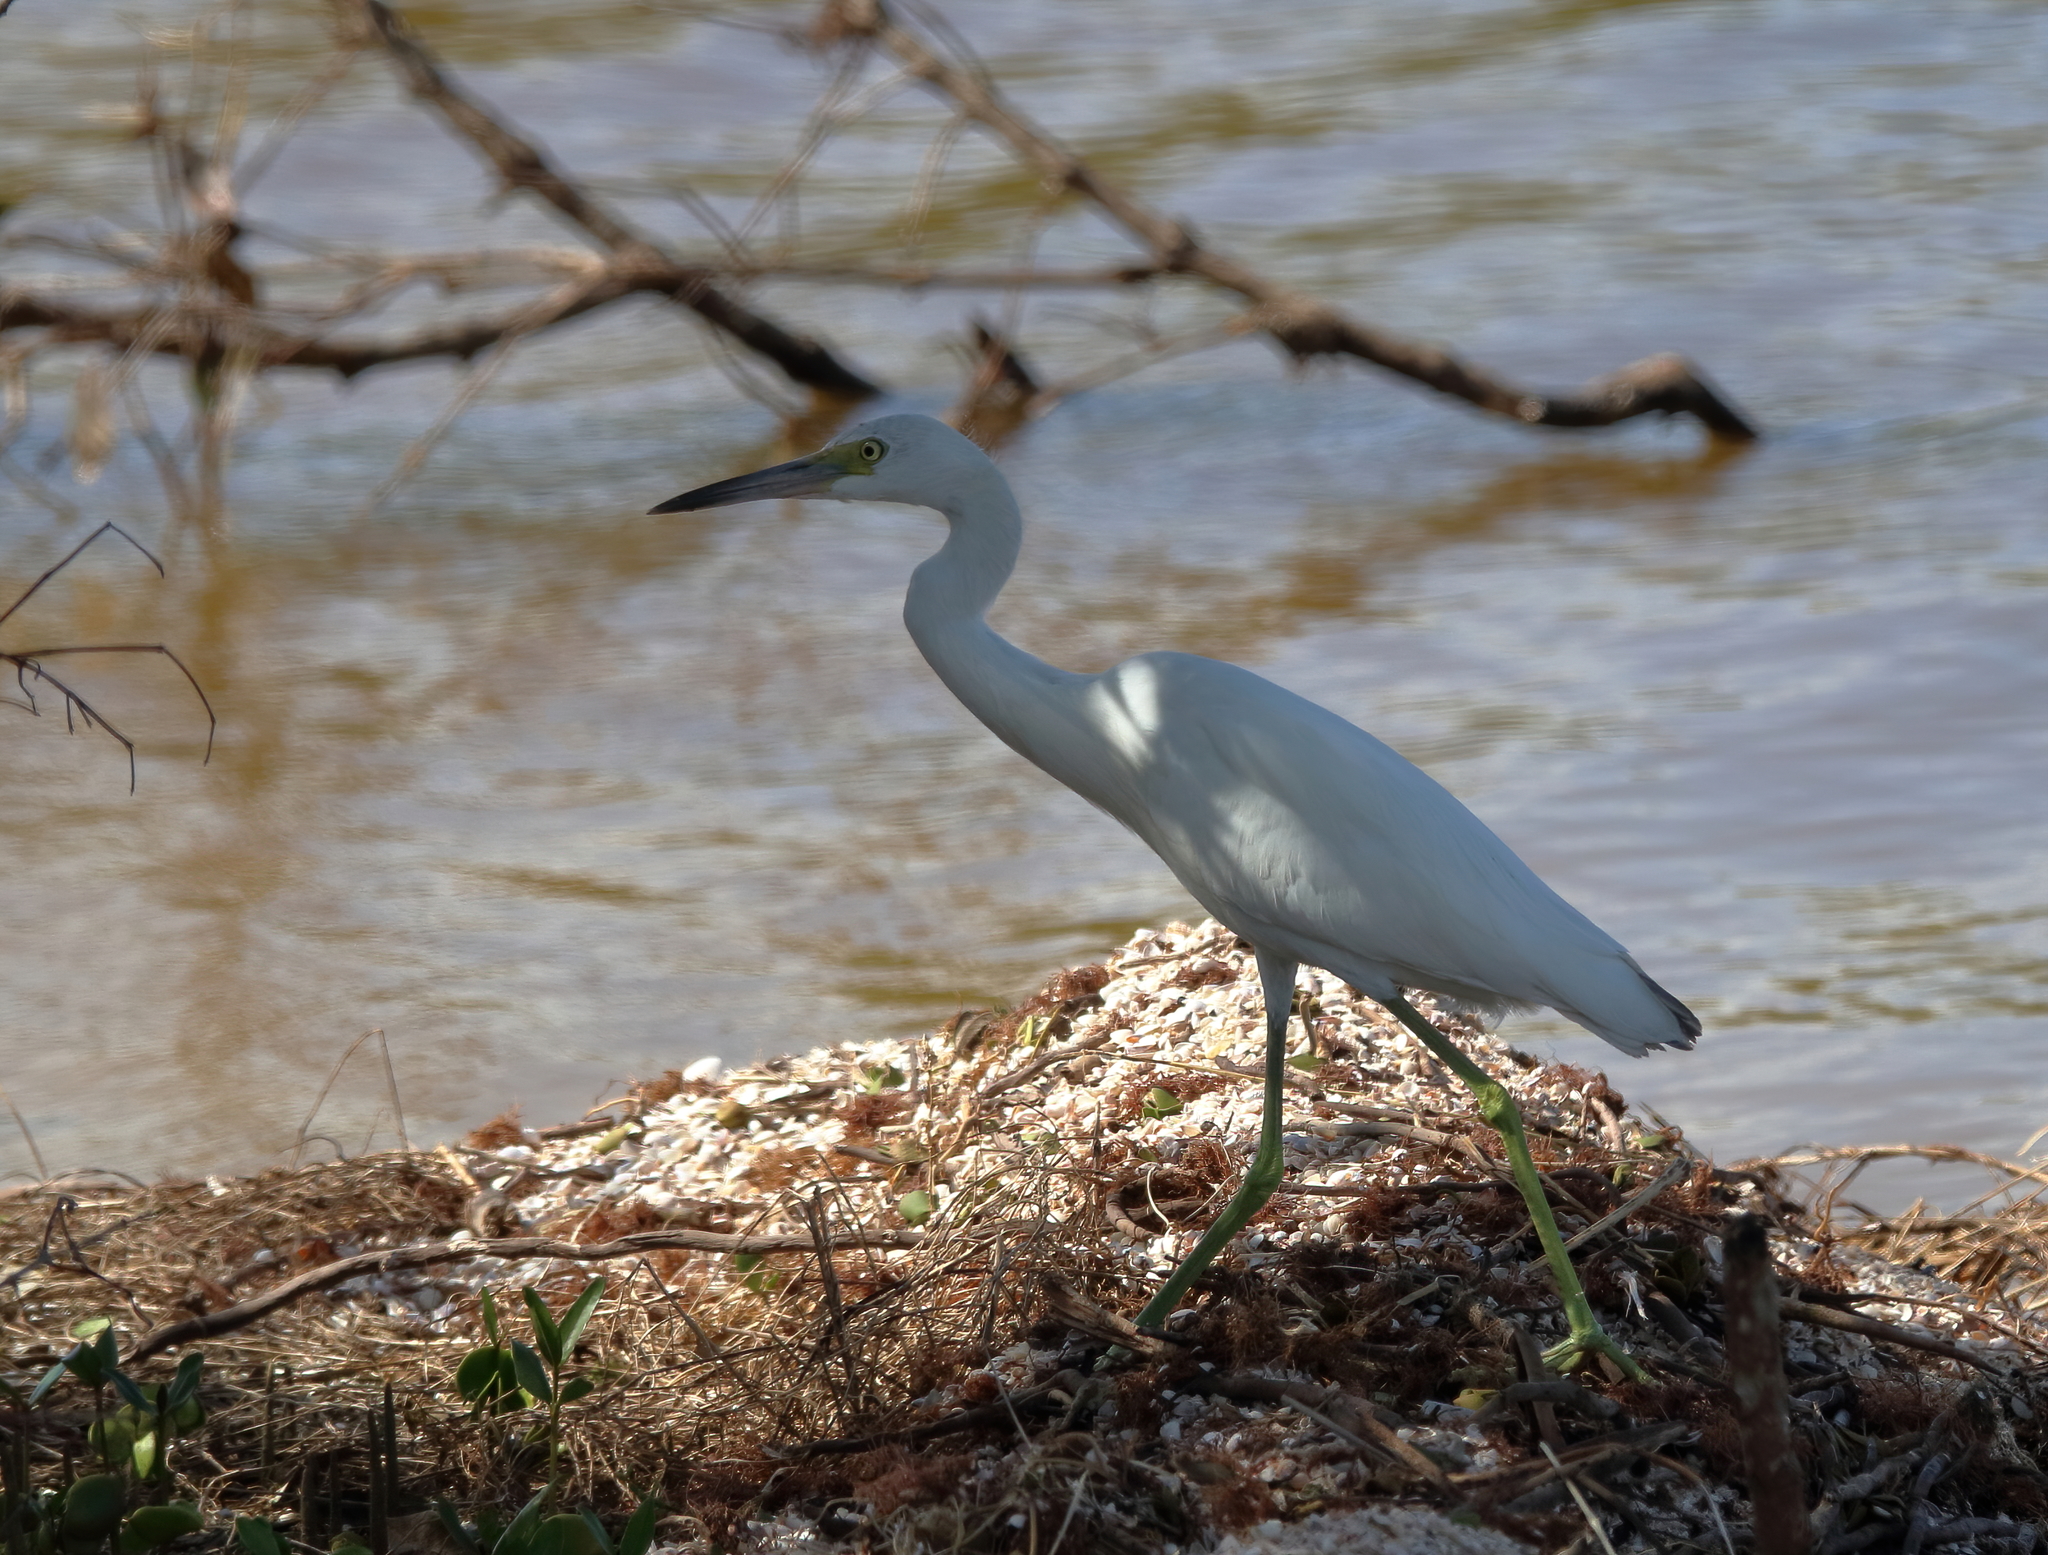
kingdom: Animalia
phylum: Chordata
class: Aves
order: Pelecaniformes
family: Ardeidae
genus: Egretta
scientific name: Egretta caerulea
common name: Little blue heron
